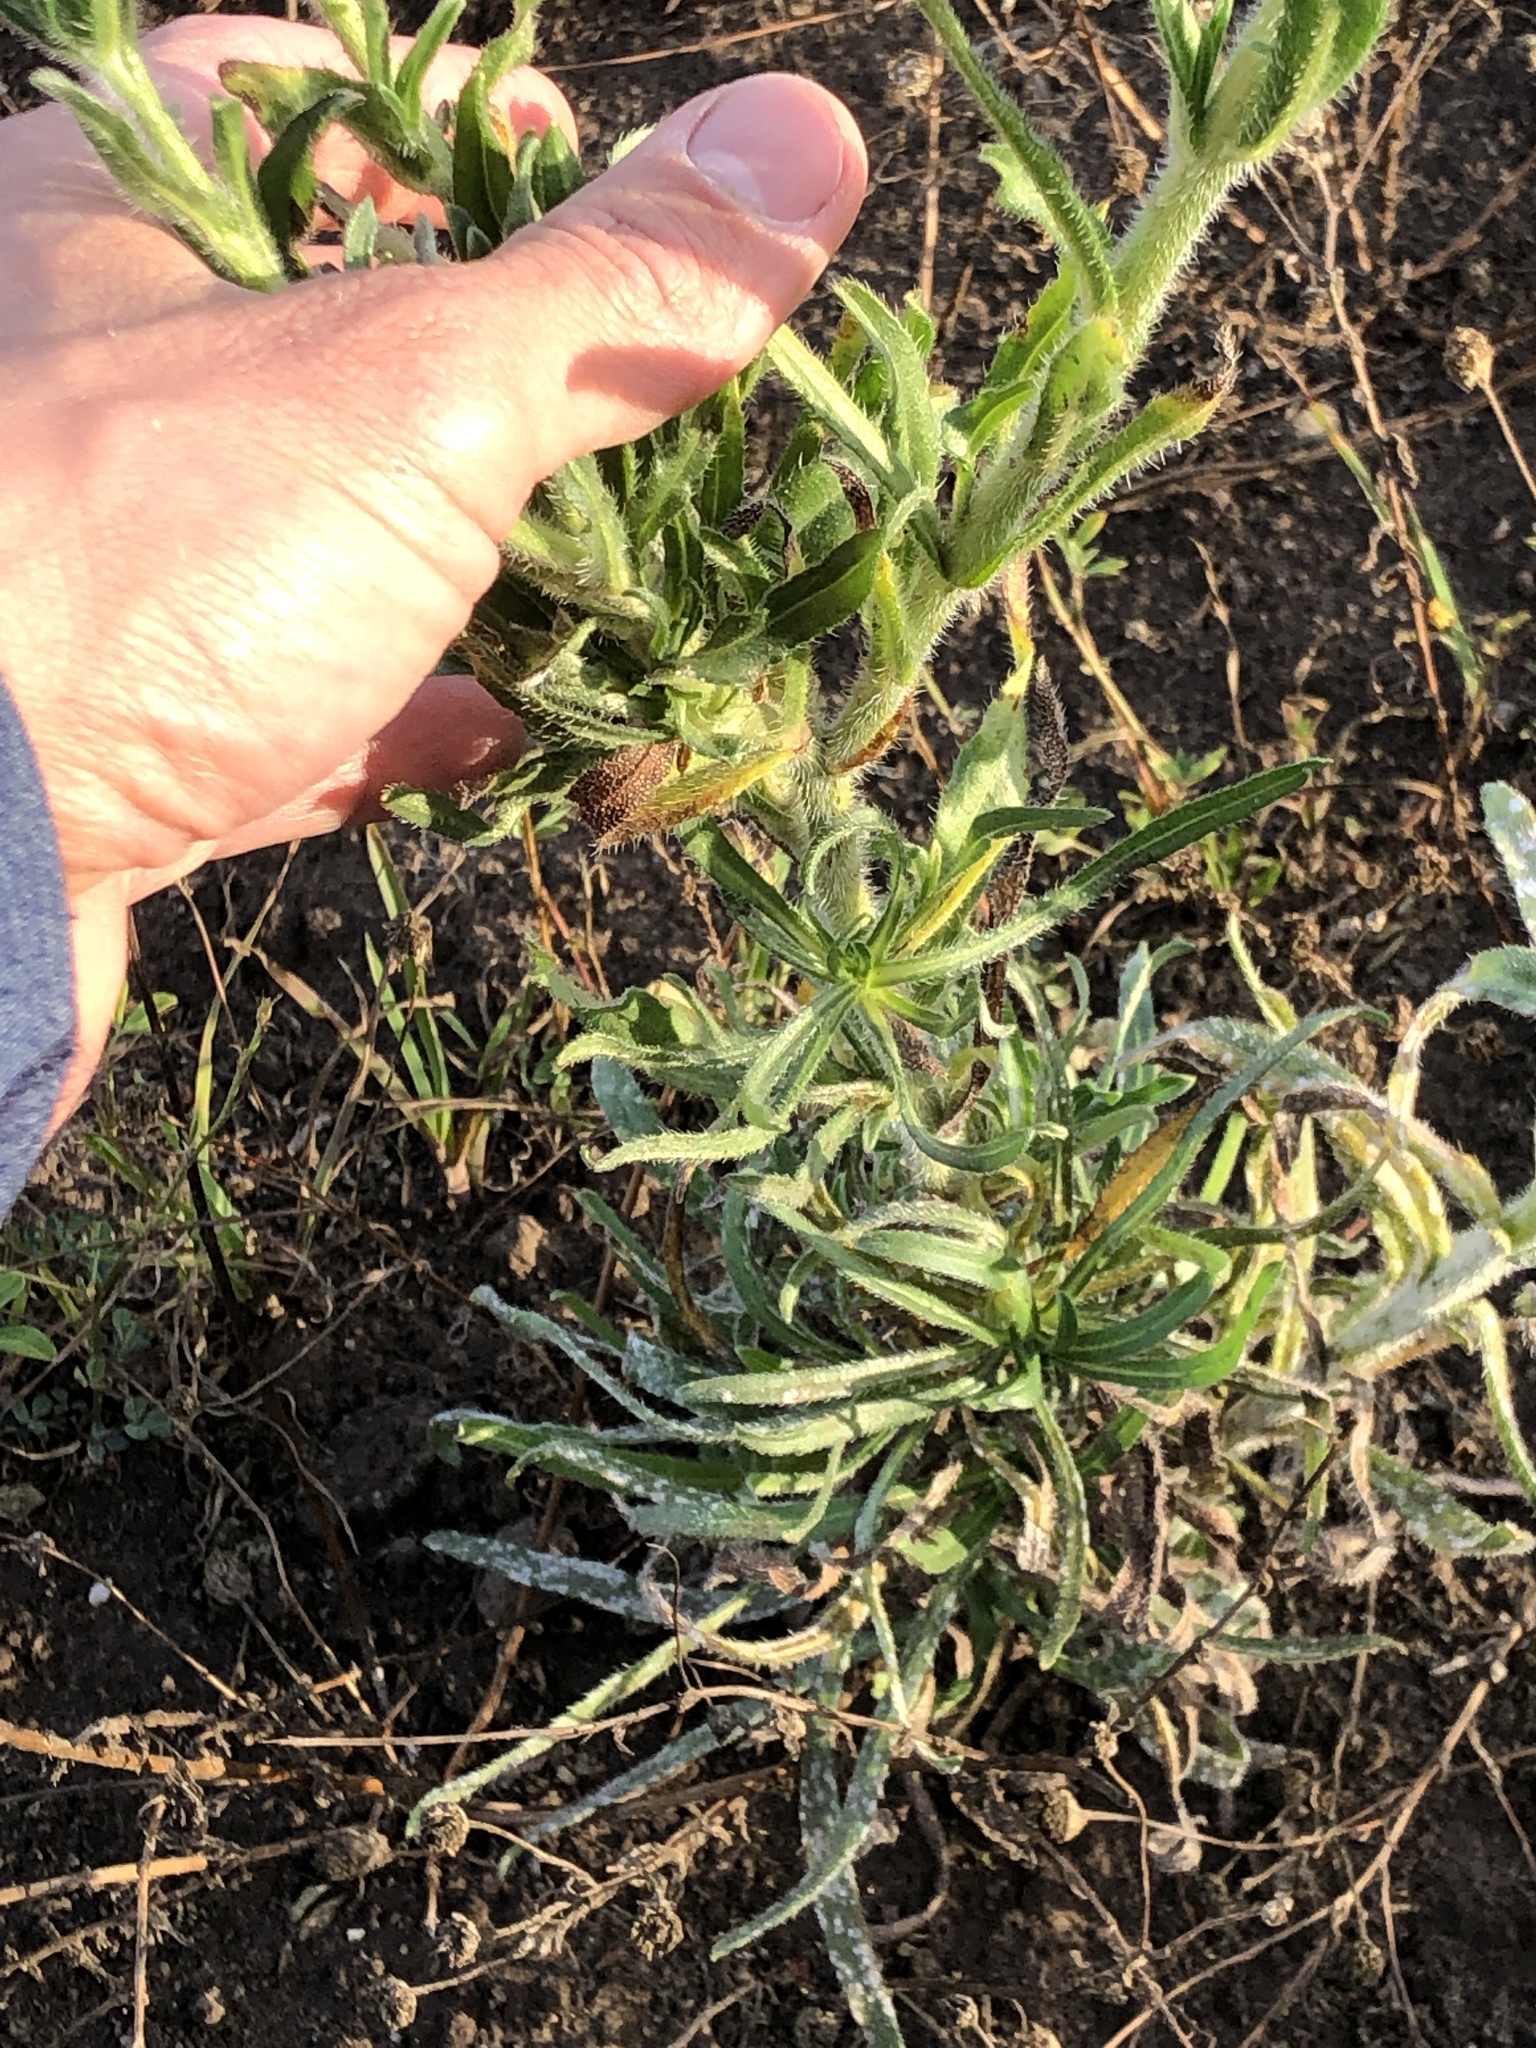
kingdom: Plantae
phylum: Tracheophyta
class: Magnoliopsida
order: Boraginales
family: Boraginaceae
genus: Amsinckia
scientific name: Amsinckia menziesii
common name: Menzies' fiddleneck
